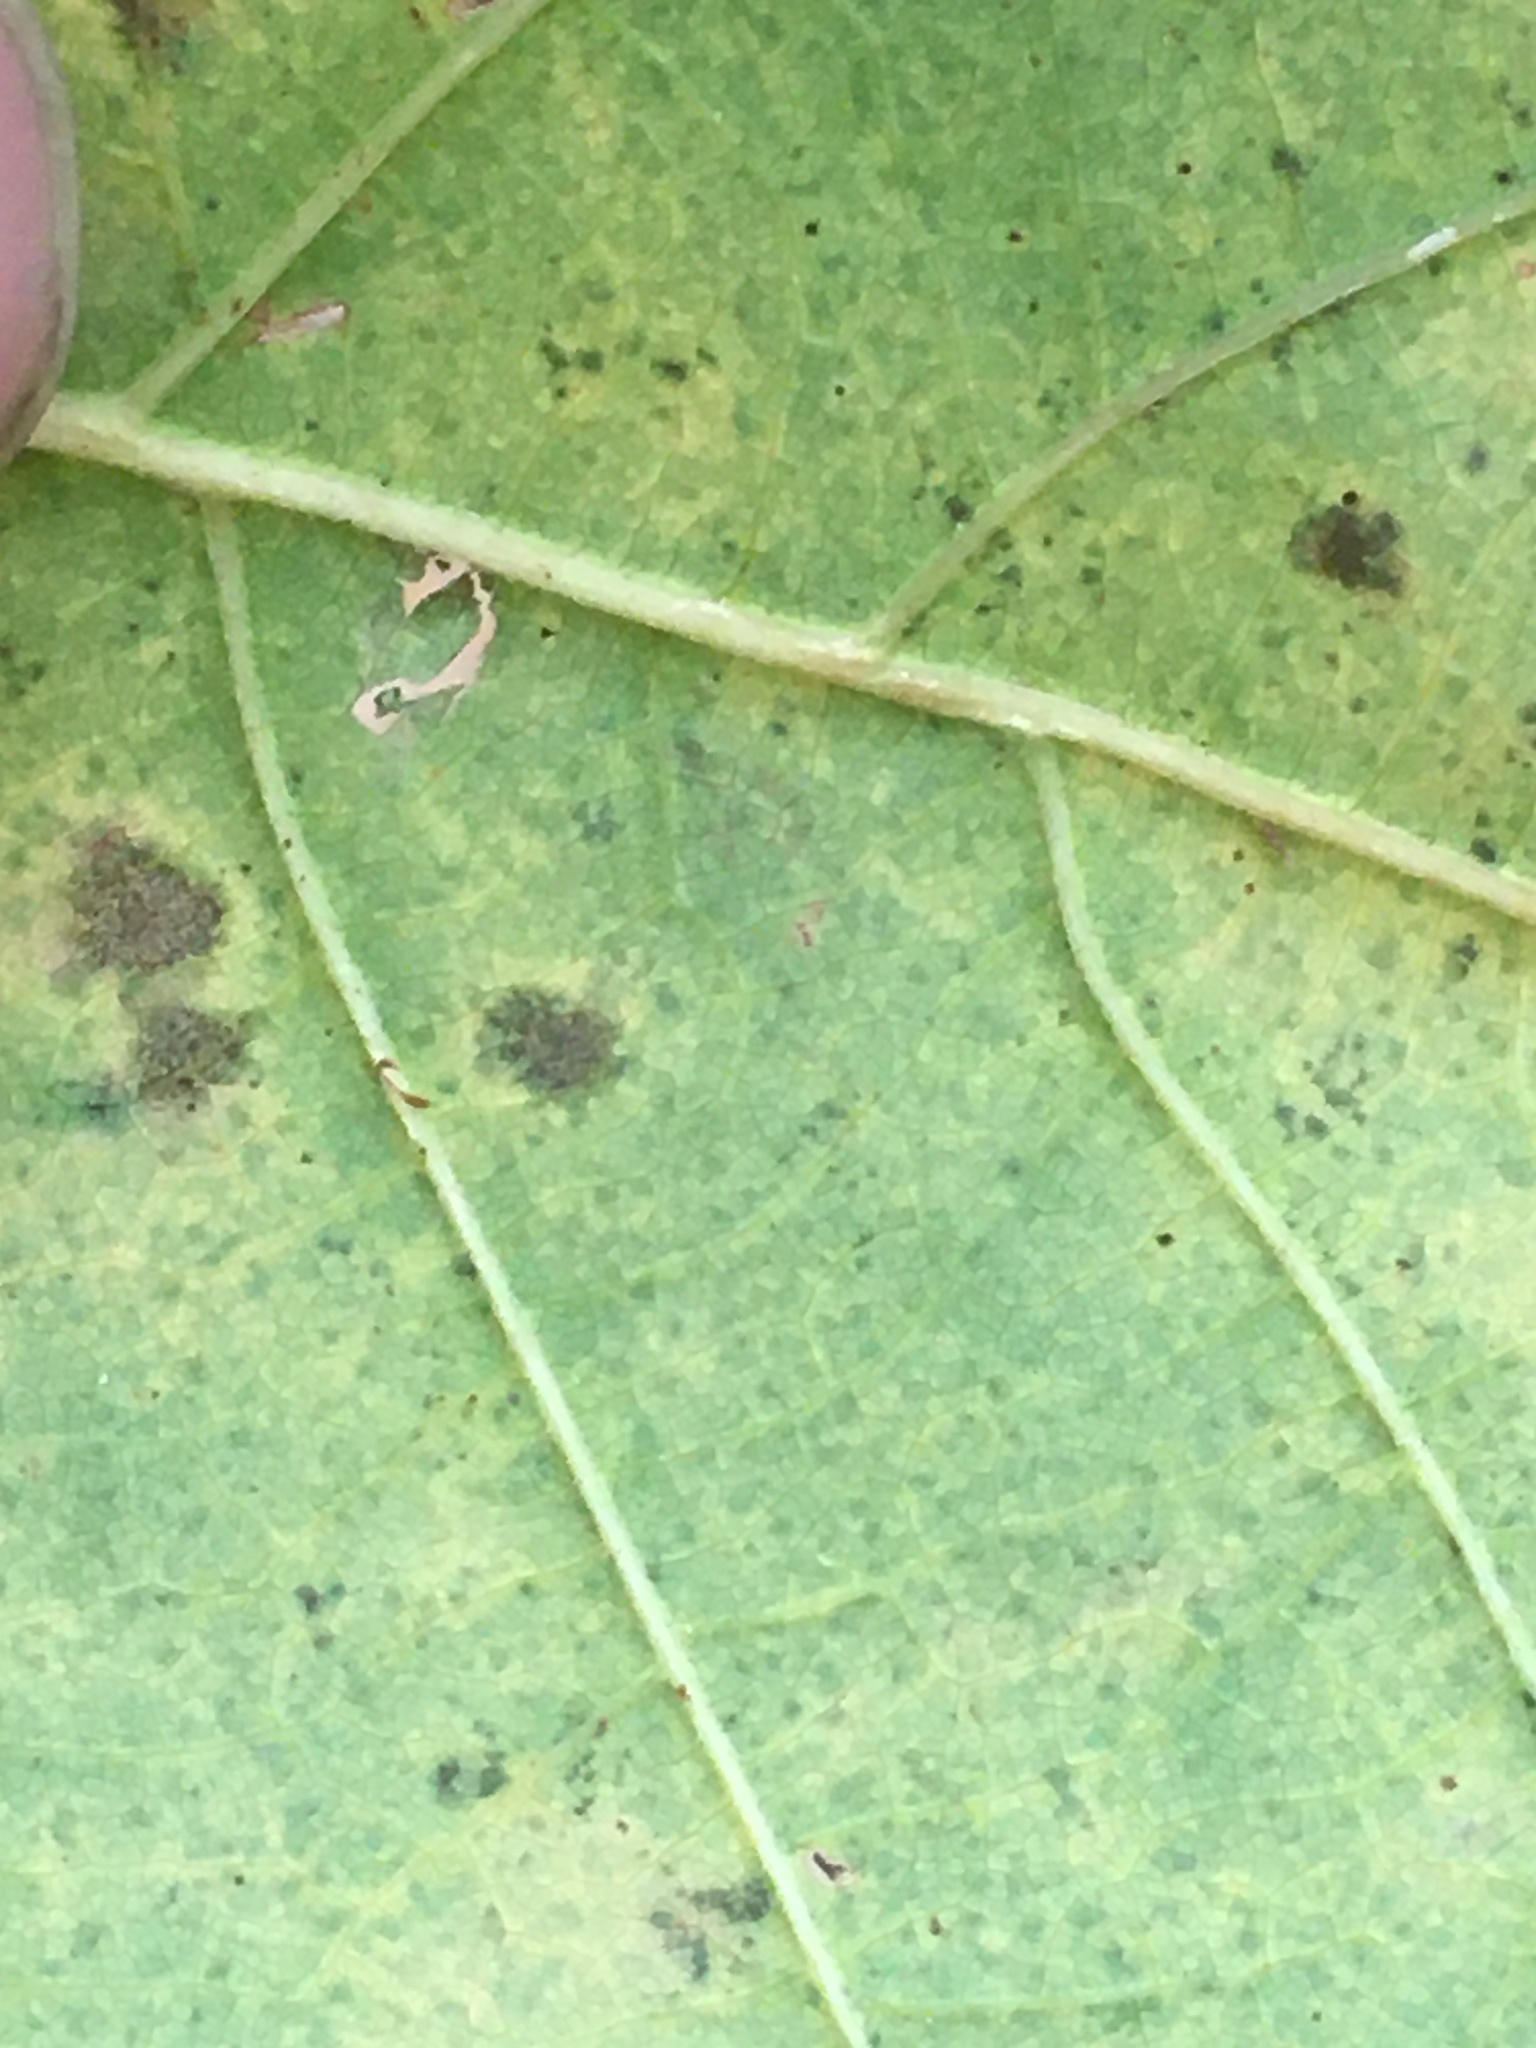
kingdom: Plantae
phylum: Tracheophyta
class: Magnoliopsida
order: Fagales
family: Fagaceae
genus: Quercus
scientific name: Quercus muehlenbergii
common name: Chinkapin oak
